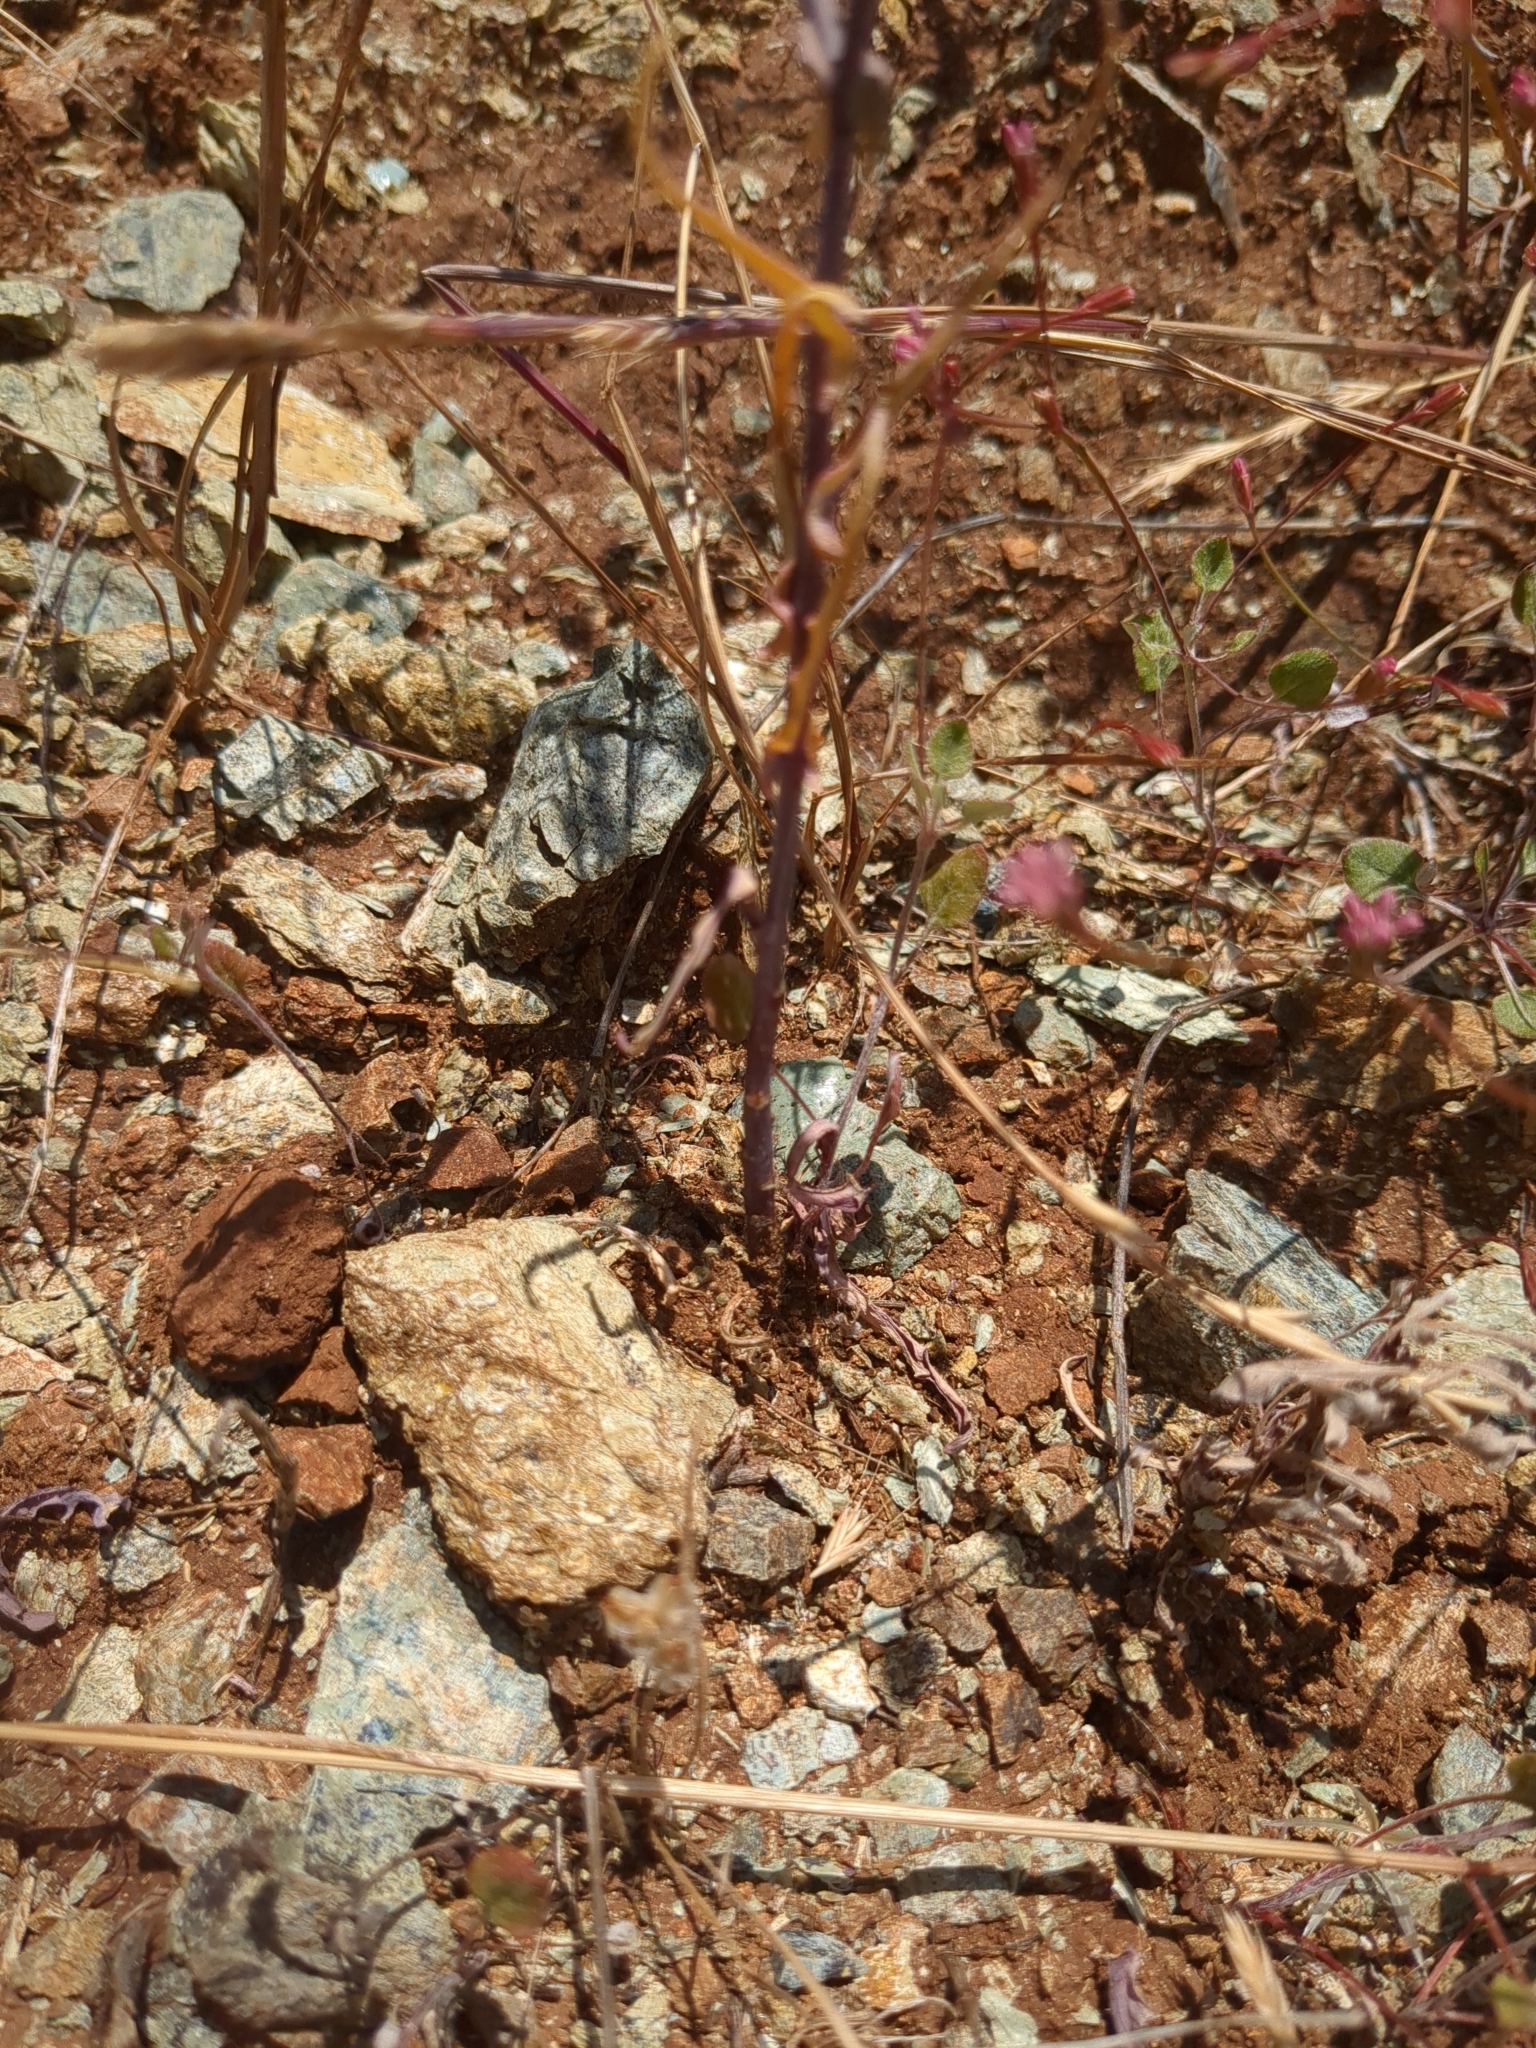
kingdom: Plantae
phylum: Tracheophyta
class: Magnoliopsida
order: Brassicales
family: Brassicaceae
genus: Streptanthus
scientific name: Streptanthus glandulosus
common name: Jewel-flower
